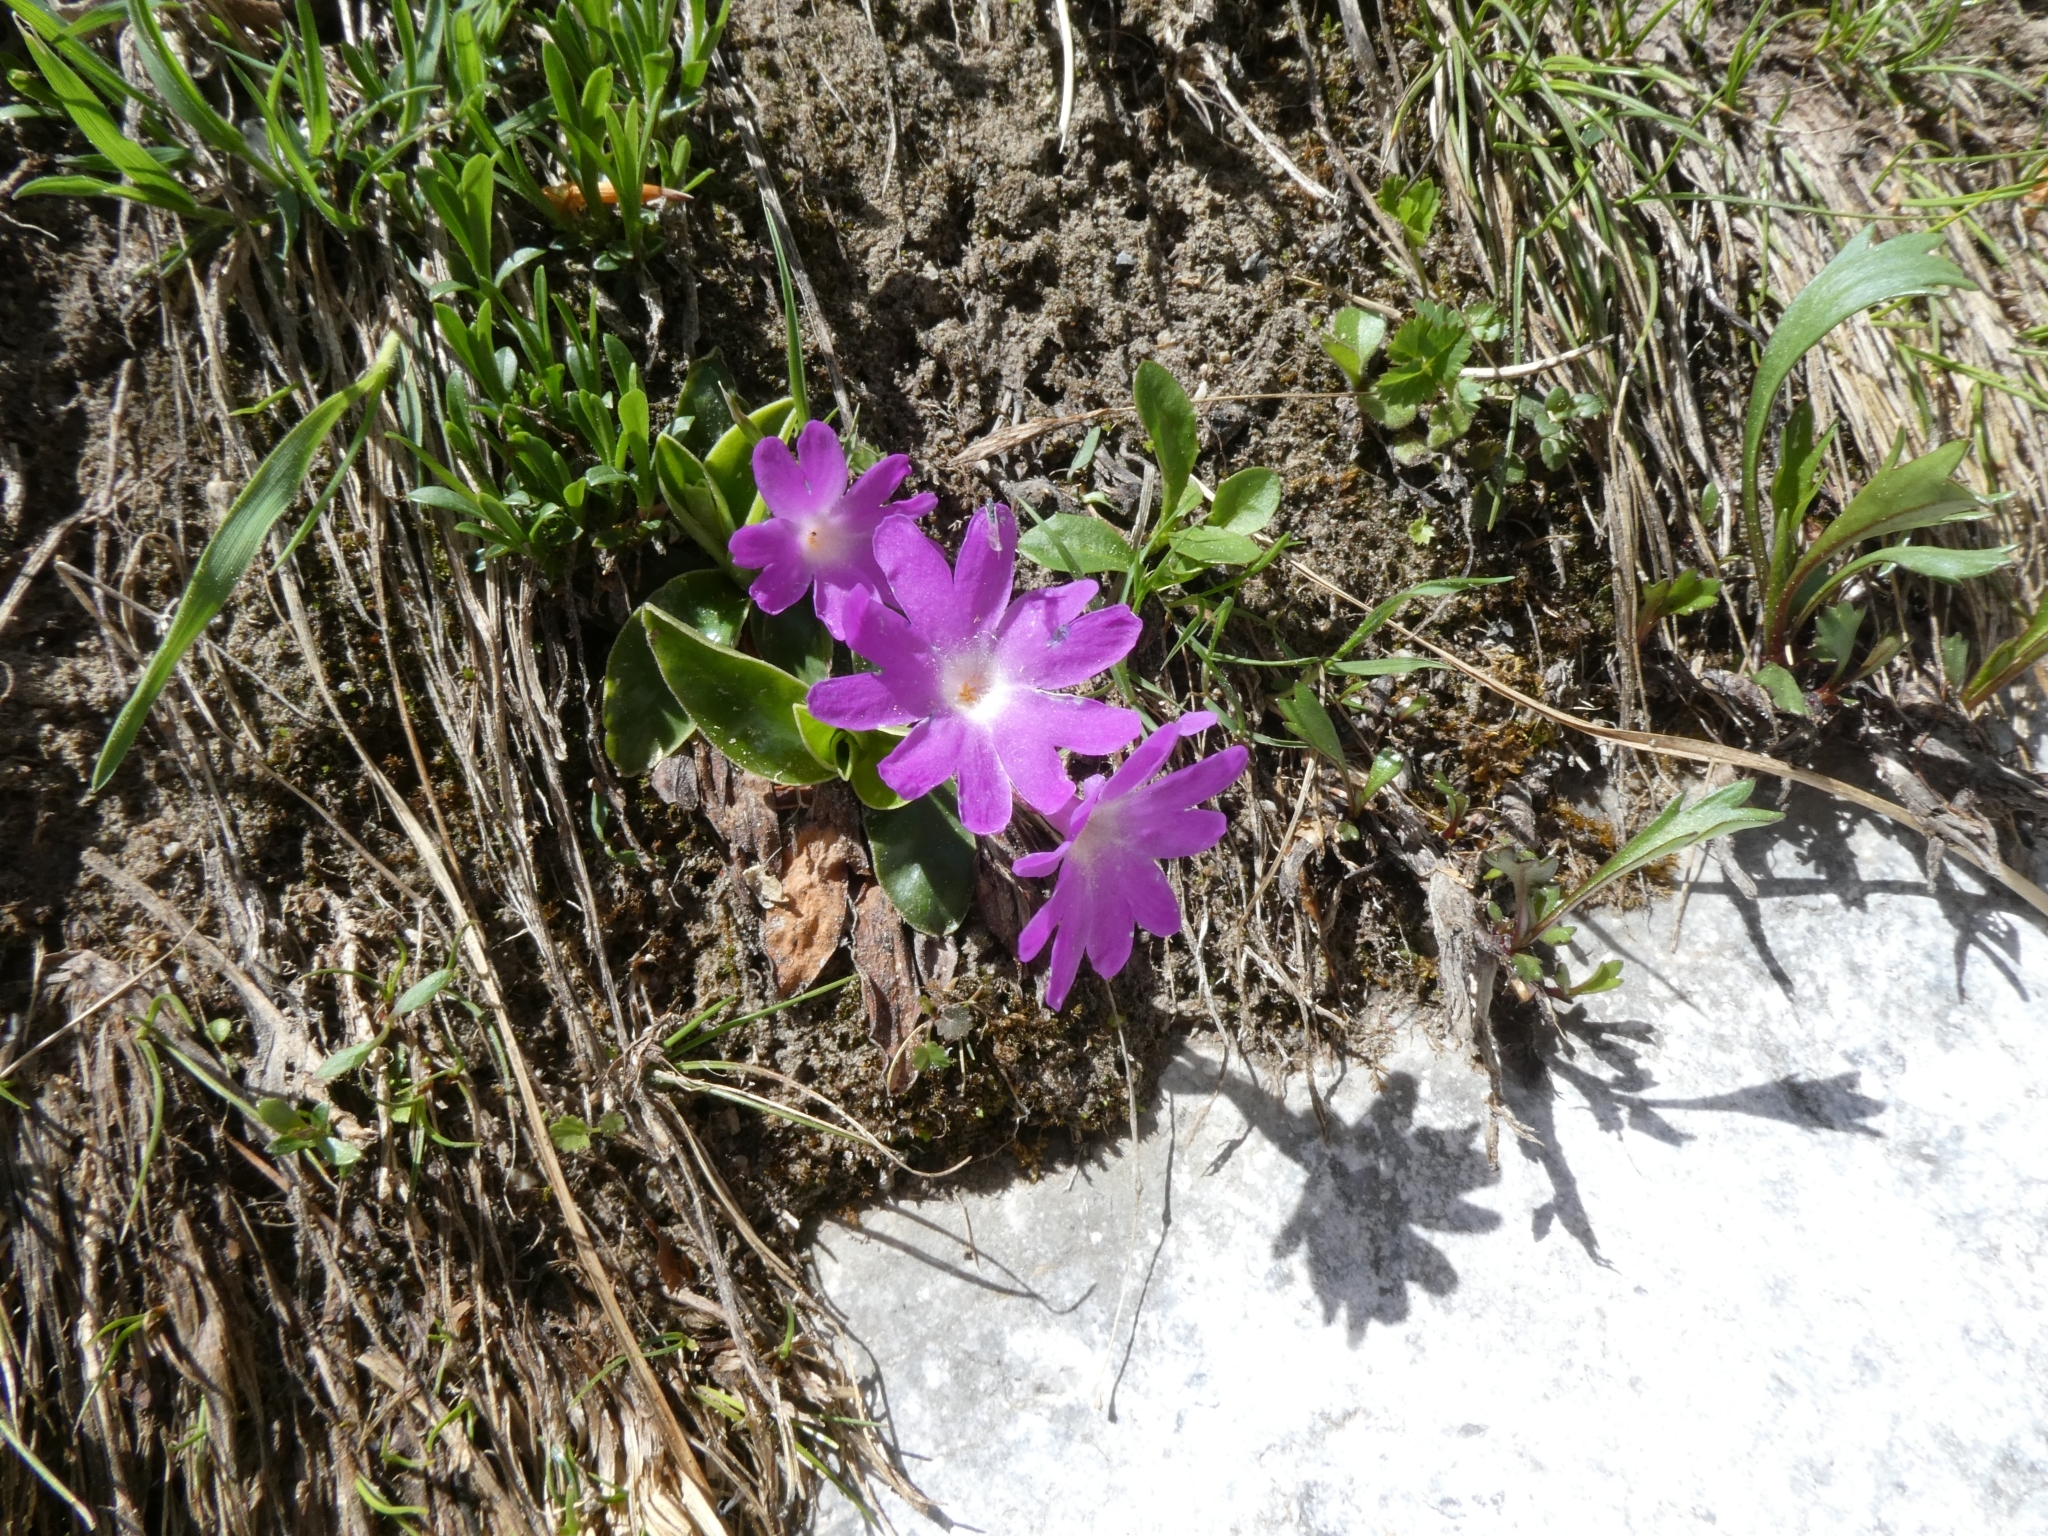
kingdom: Plantae
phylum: Tracheophyta
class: Magnoliopsida
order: Ericales
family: Primulaceae
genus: Primula
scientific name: Primula clusiana
